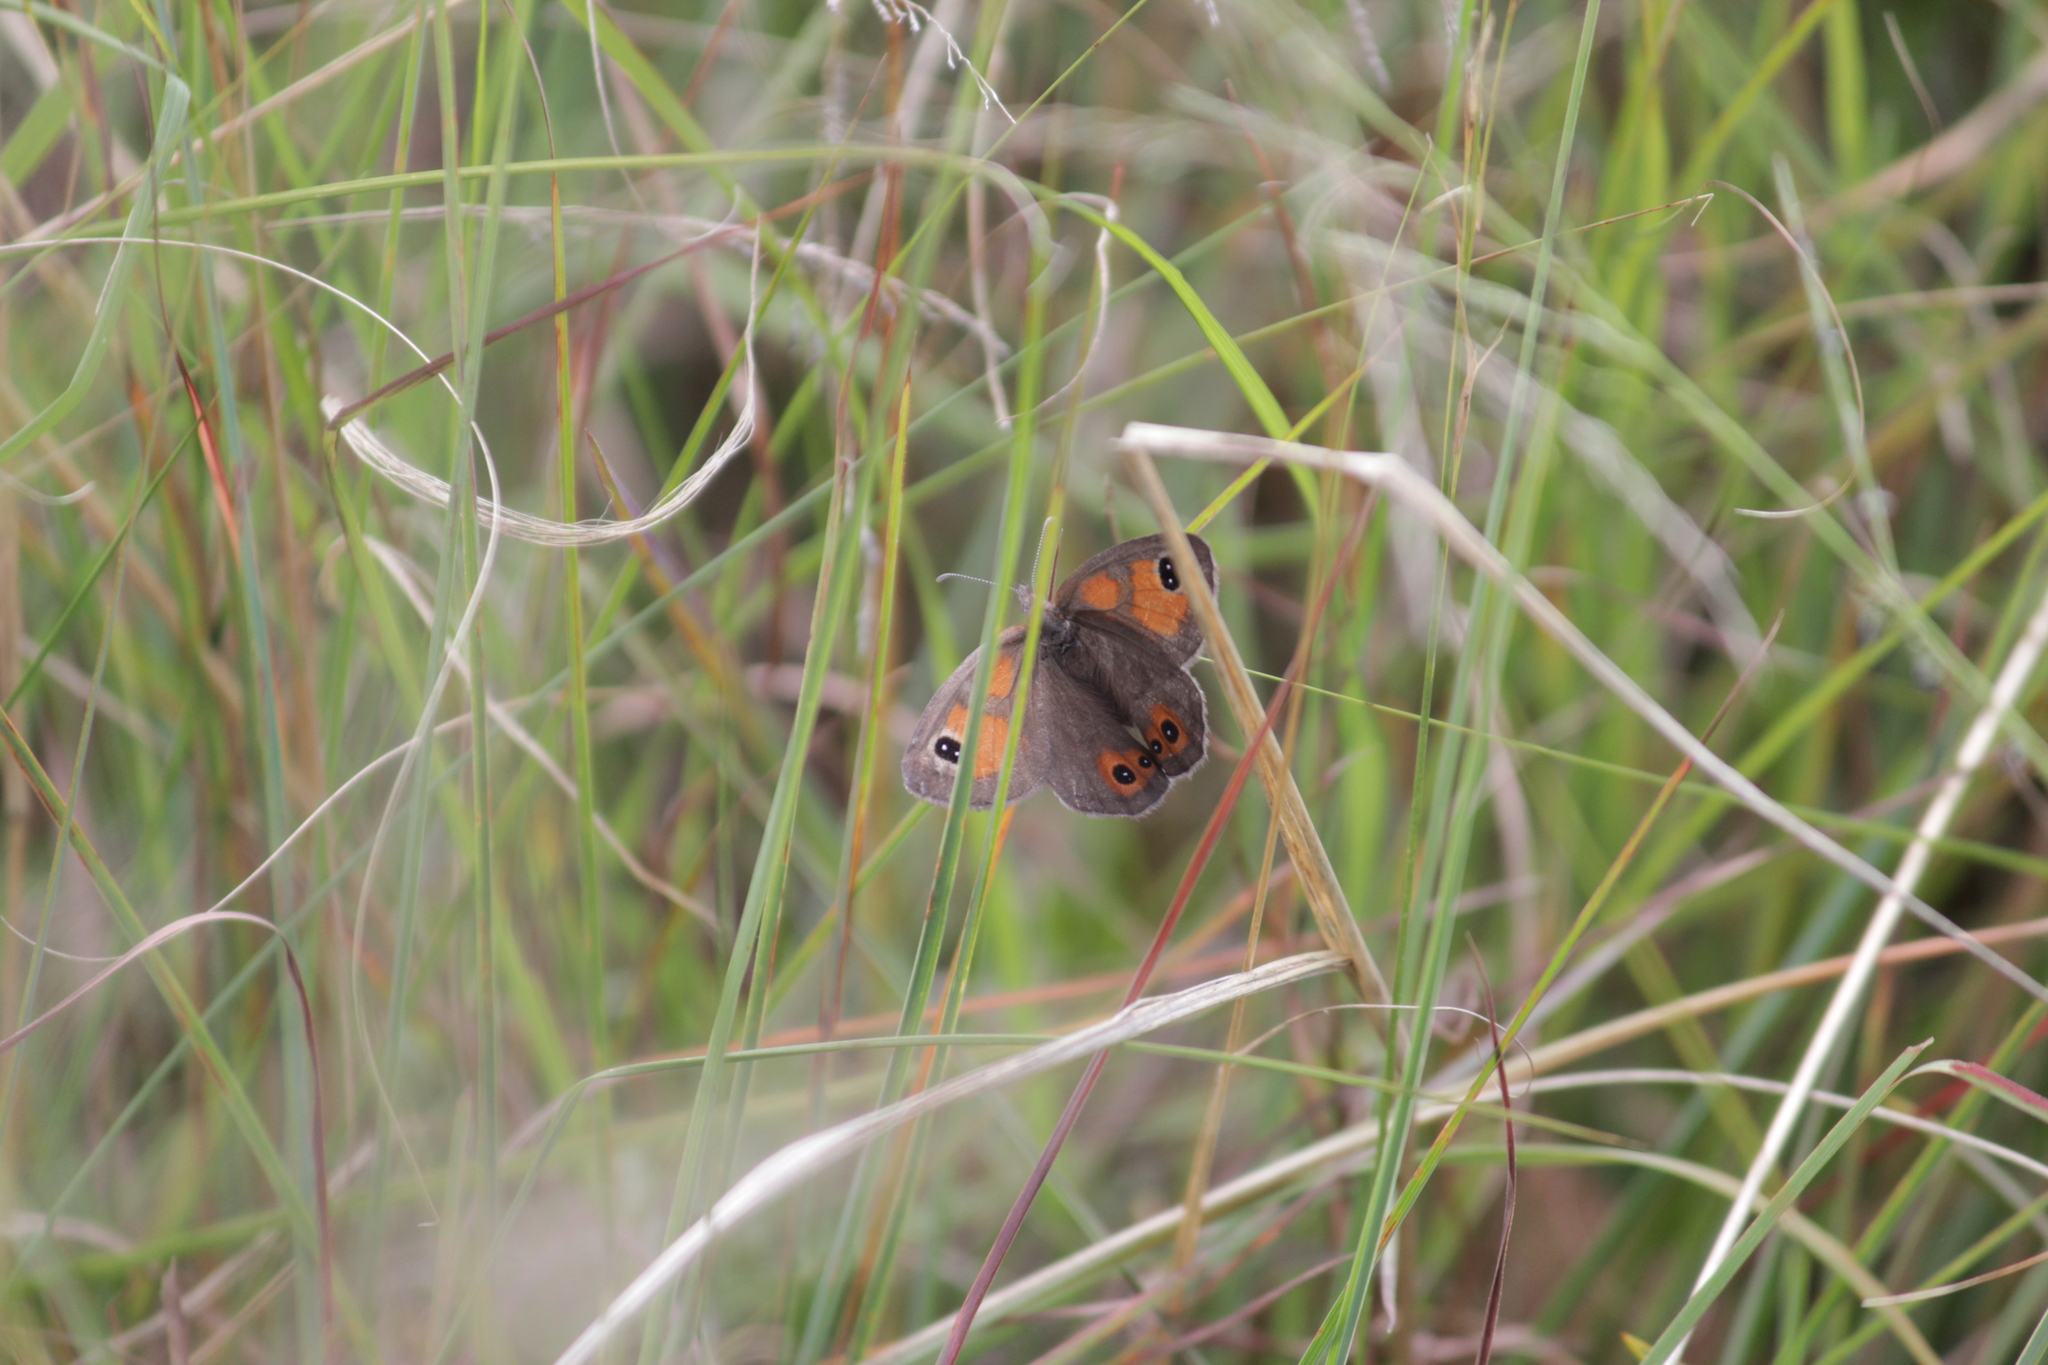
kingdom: Animalia
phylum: Arthropoda
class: Insecta
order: Lepidoptera
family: Nymphalidae
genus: Pseudonympha
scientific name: Pseudonympha magoides
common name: False silver-bottom brown
